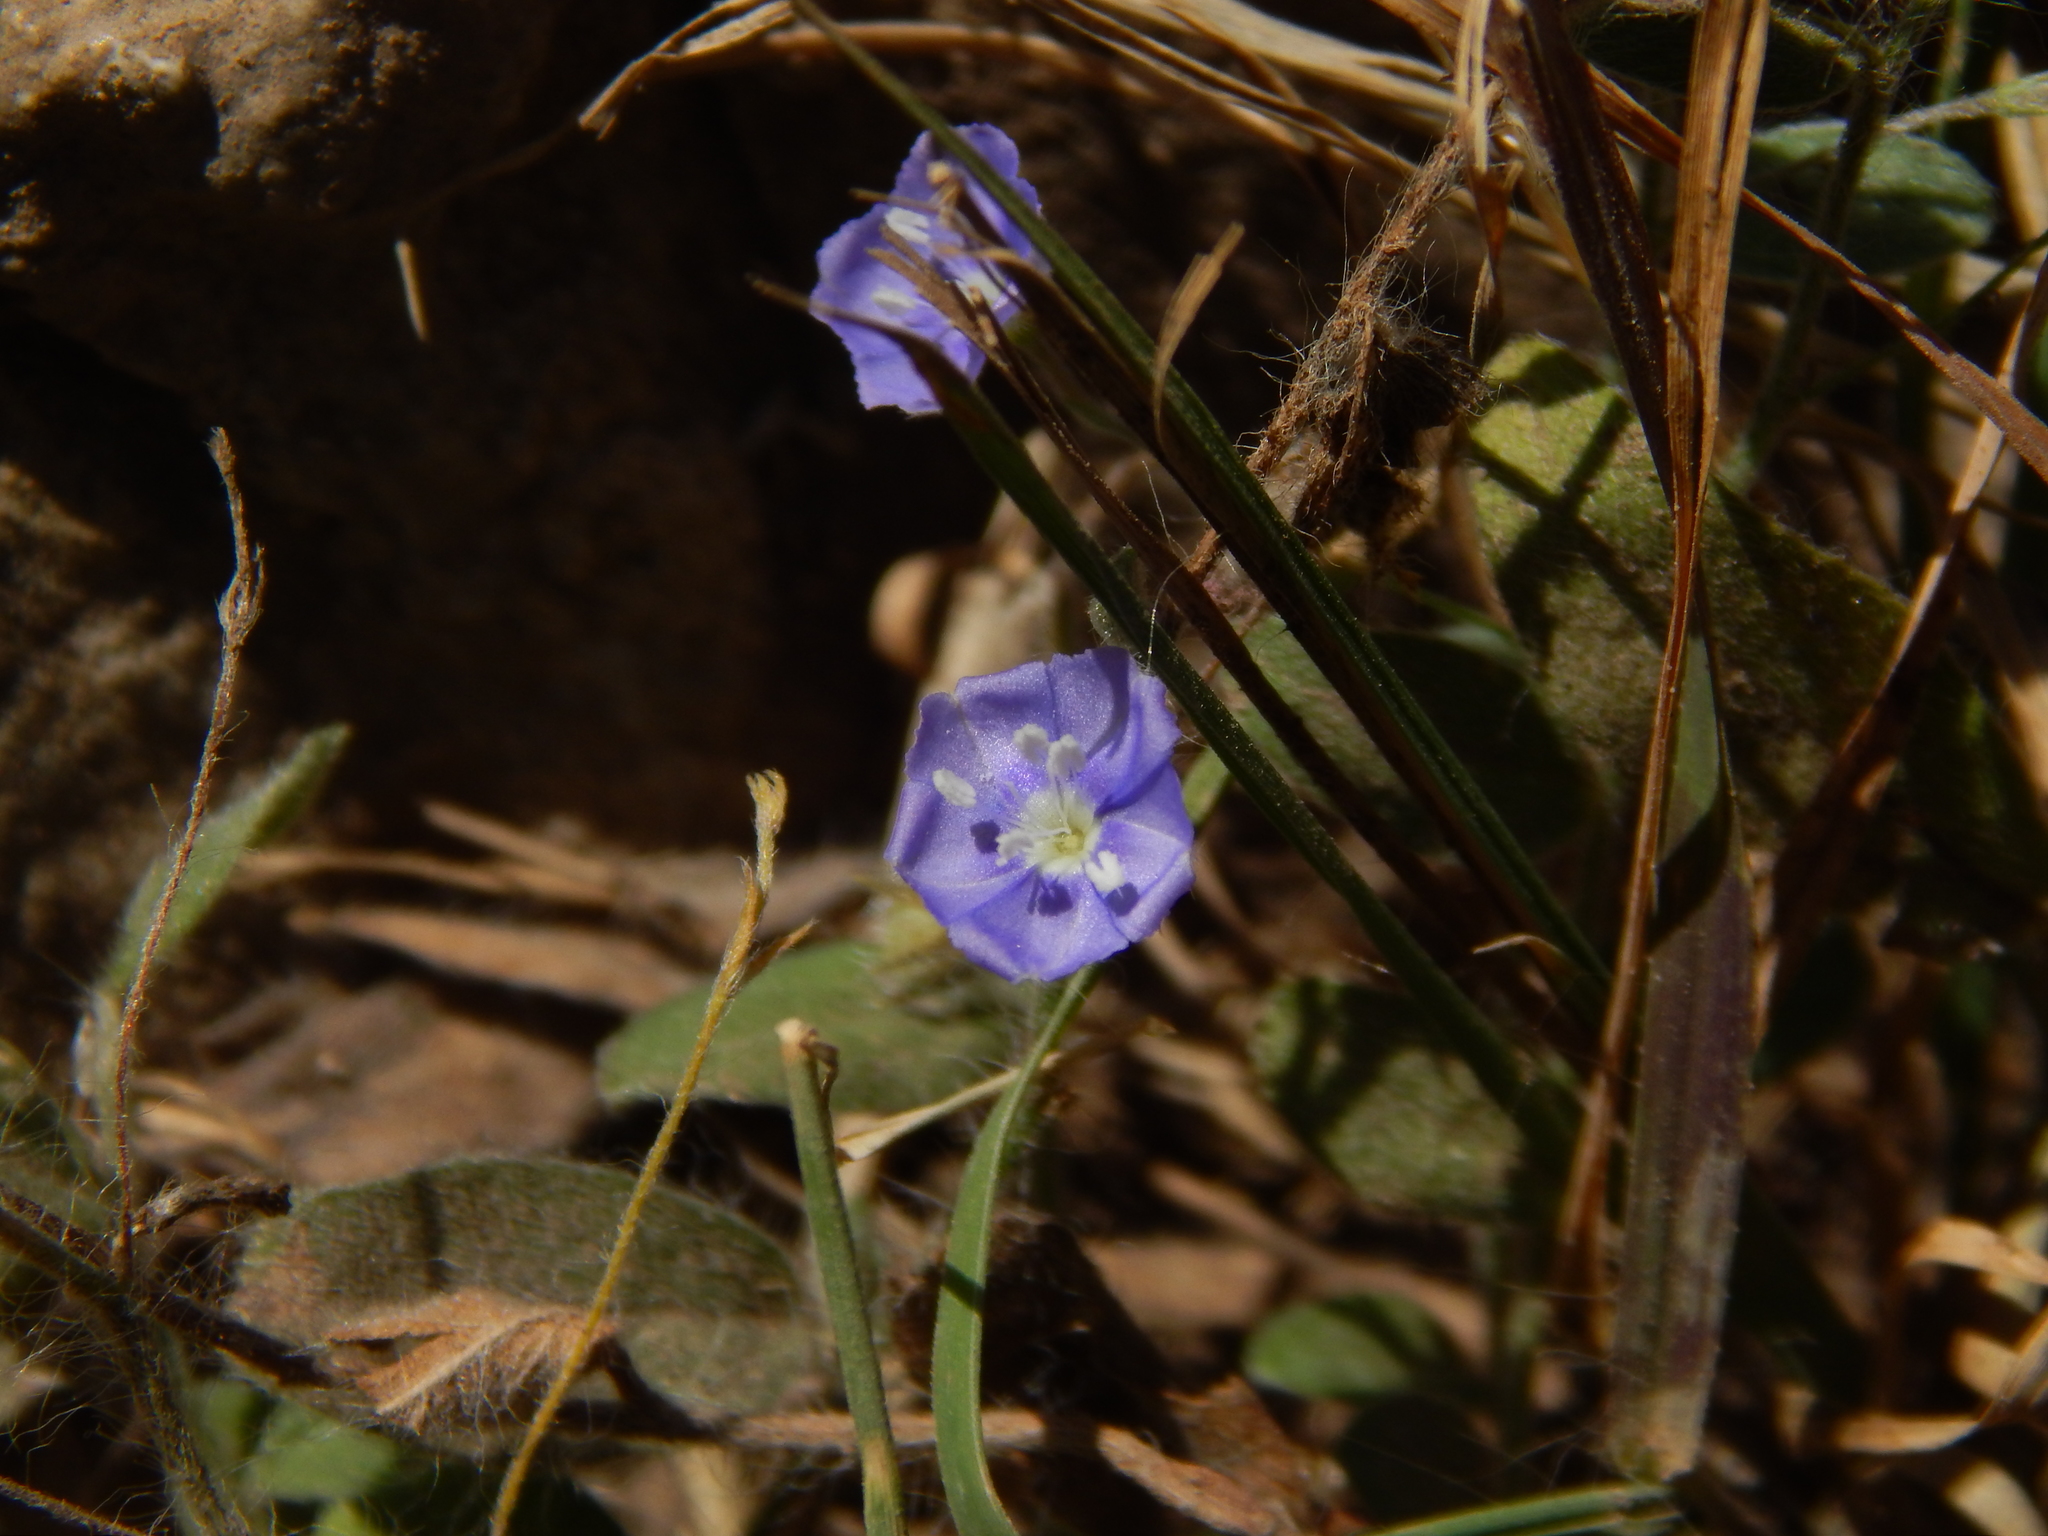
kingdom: Plantae
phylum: Tracheophyta
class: Magnoliopsida
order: Solanales
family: Convolvulaceae
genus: Evolvulus
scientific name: Evolvulus alsinoides
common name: Slender dwarf morning-glory
